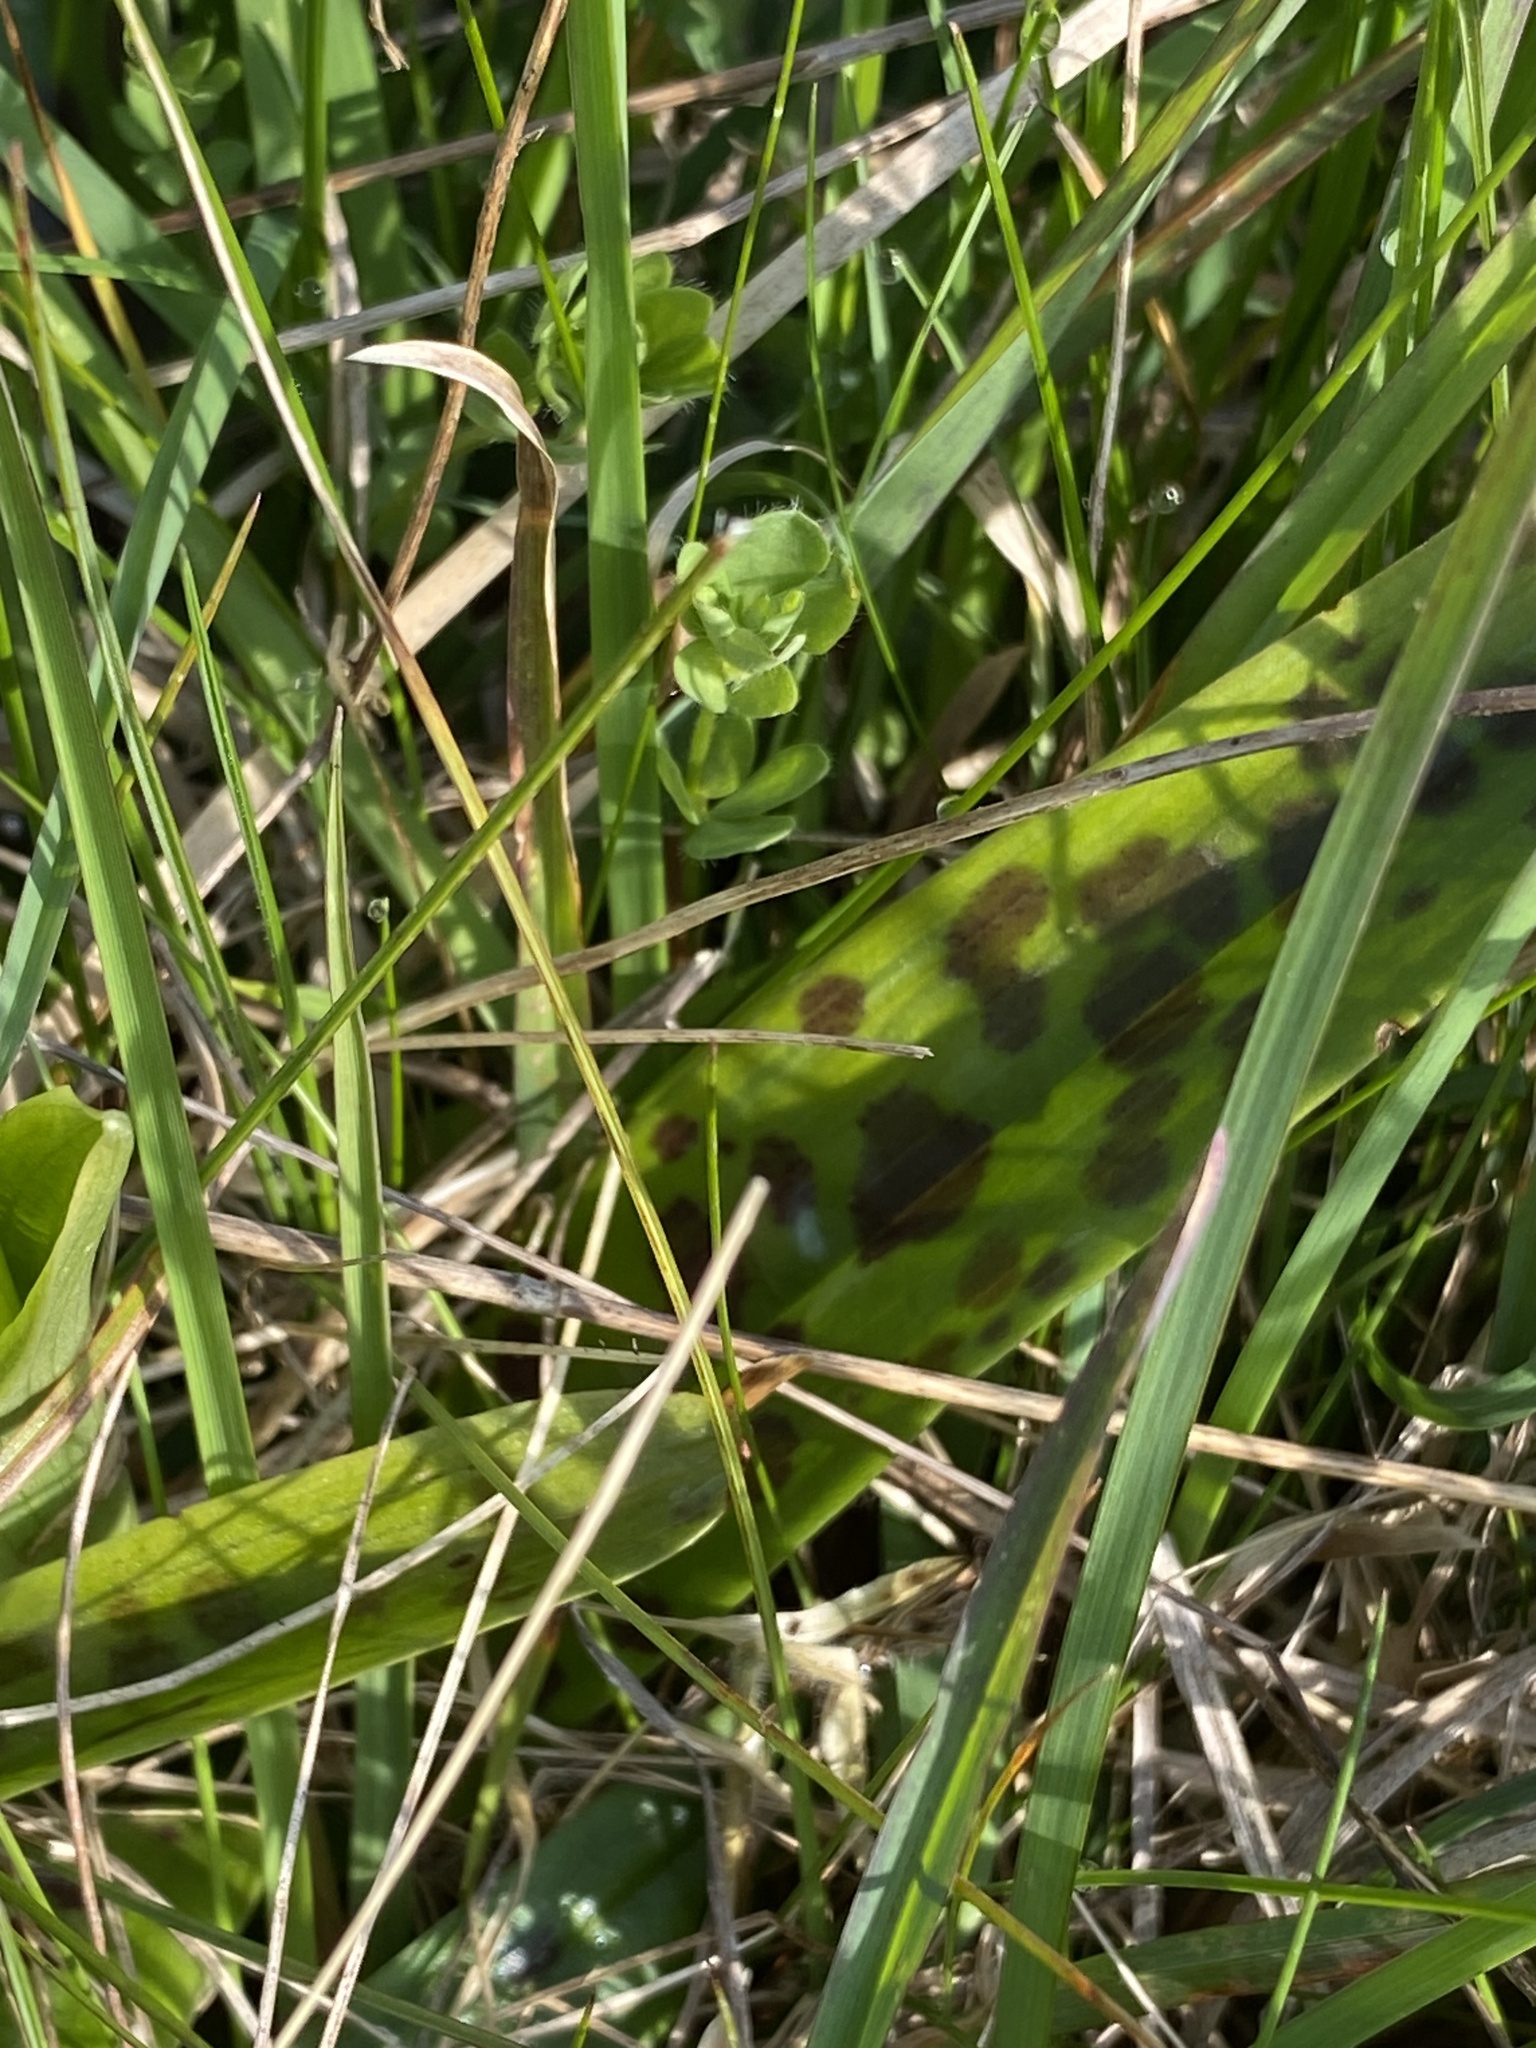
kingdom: Plantae
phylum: Tracheophyta
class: Liliopsida
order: Asparagales
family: Orchidaceae
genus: Orchis
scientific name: Orchis mascula
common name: Early-purple orchid
